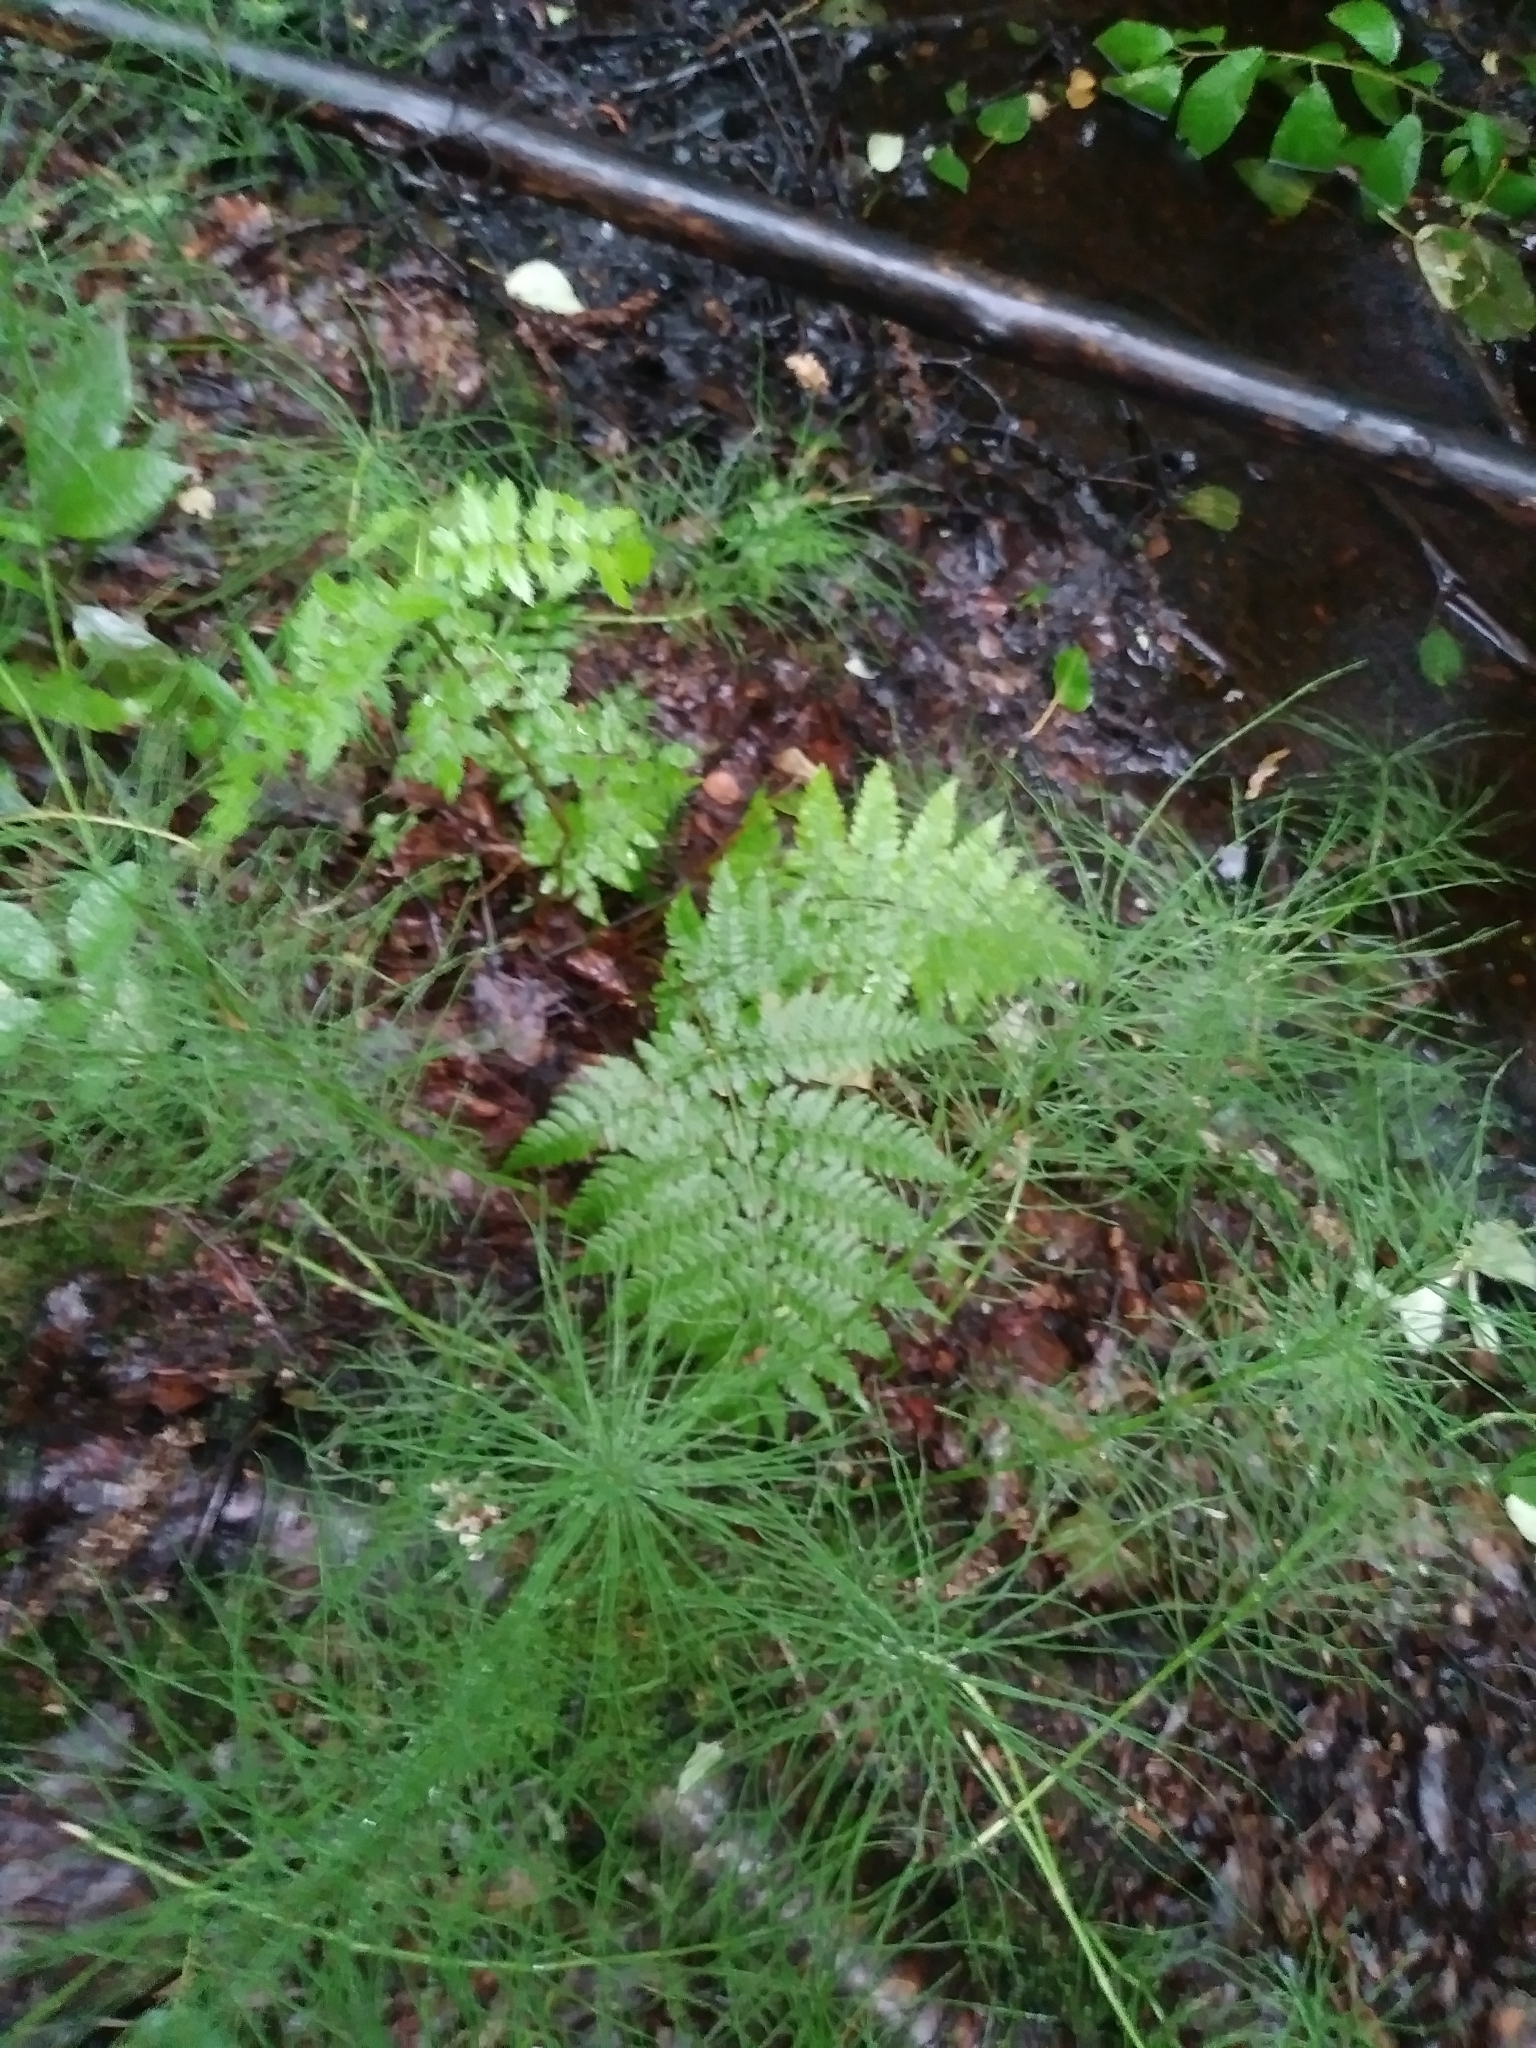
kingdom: Plantae
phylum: Tracheophyta
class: Polypodiopsida
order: Polypodiales
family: Dryopteridaceae
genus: Dryopteris
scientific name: Dryopteris expansa
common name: Northern buckler fern
